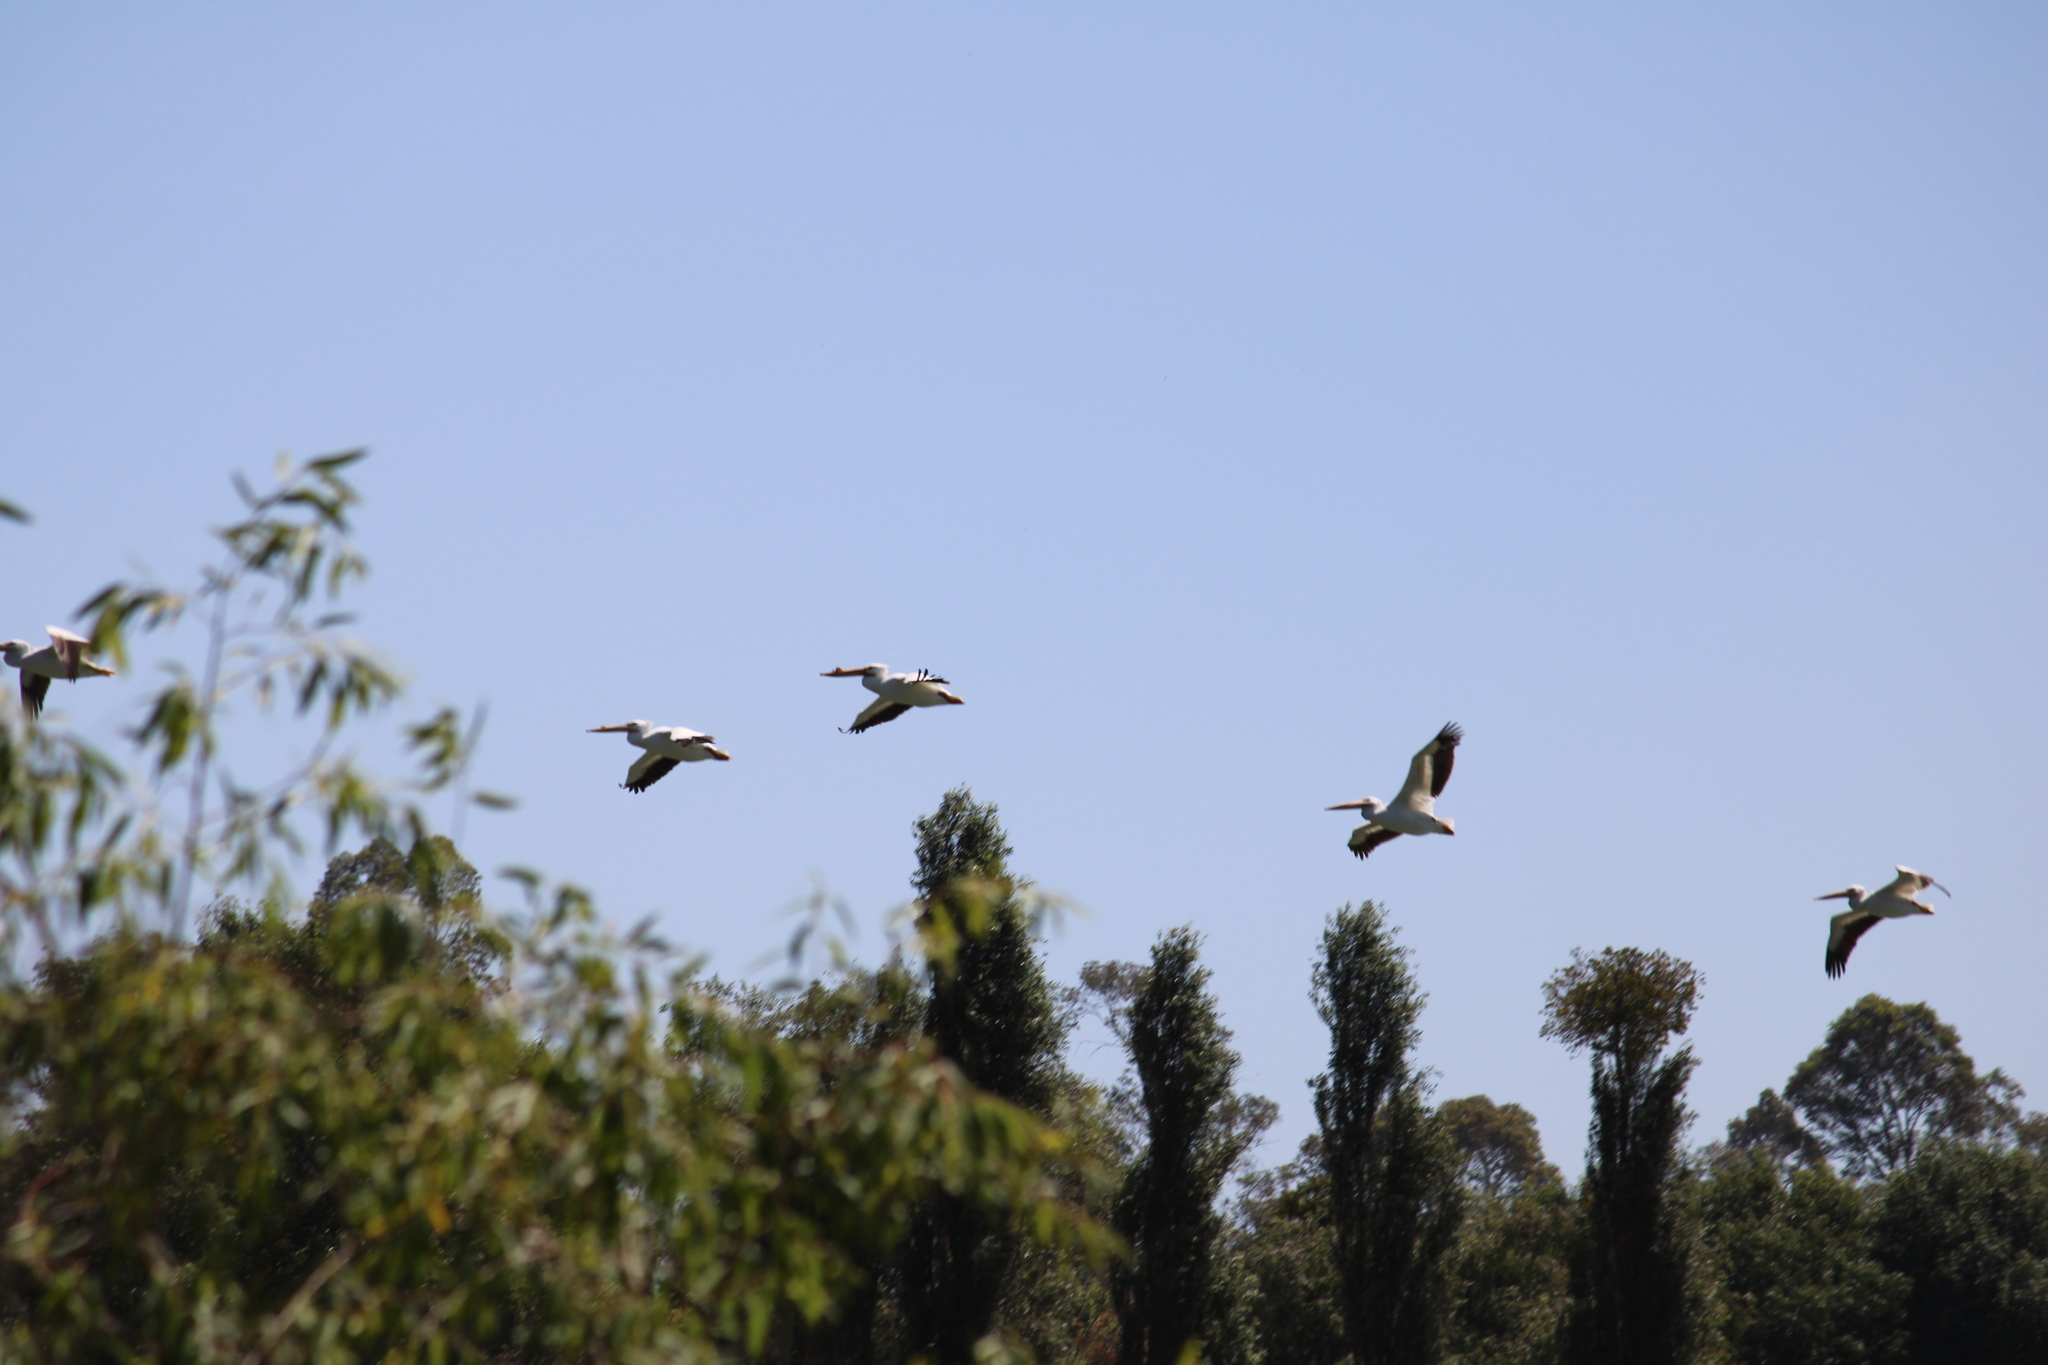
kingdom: Animalia
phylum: Chordata
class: Aves
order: Pelecaniformes
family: Pelecanidae
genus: Pelecanus
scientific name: Pelecanus erythrorhynchos
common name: American white pelican
